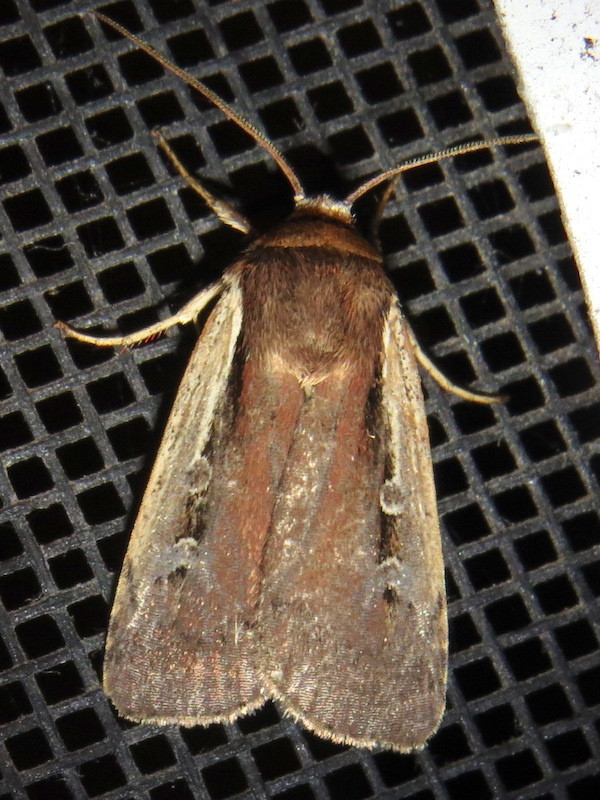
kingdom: Animalia
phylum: Arthropoda
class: Insecta
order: Lepidoptera
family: Noctuidae
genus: Ochropleura
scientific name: Ochropleura implecta
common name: Flame-shouldered dart
